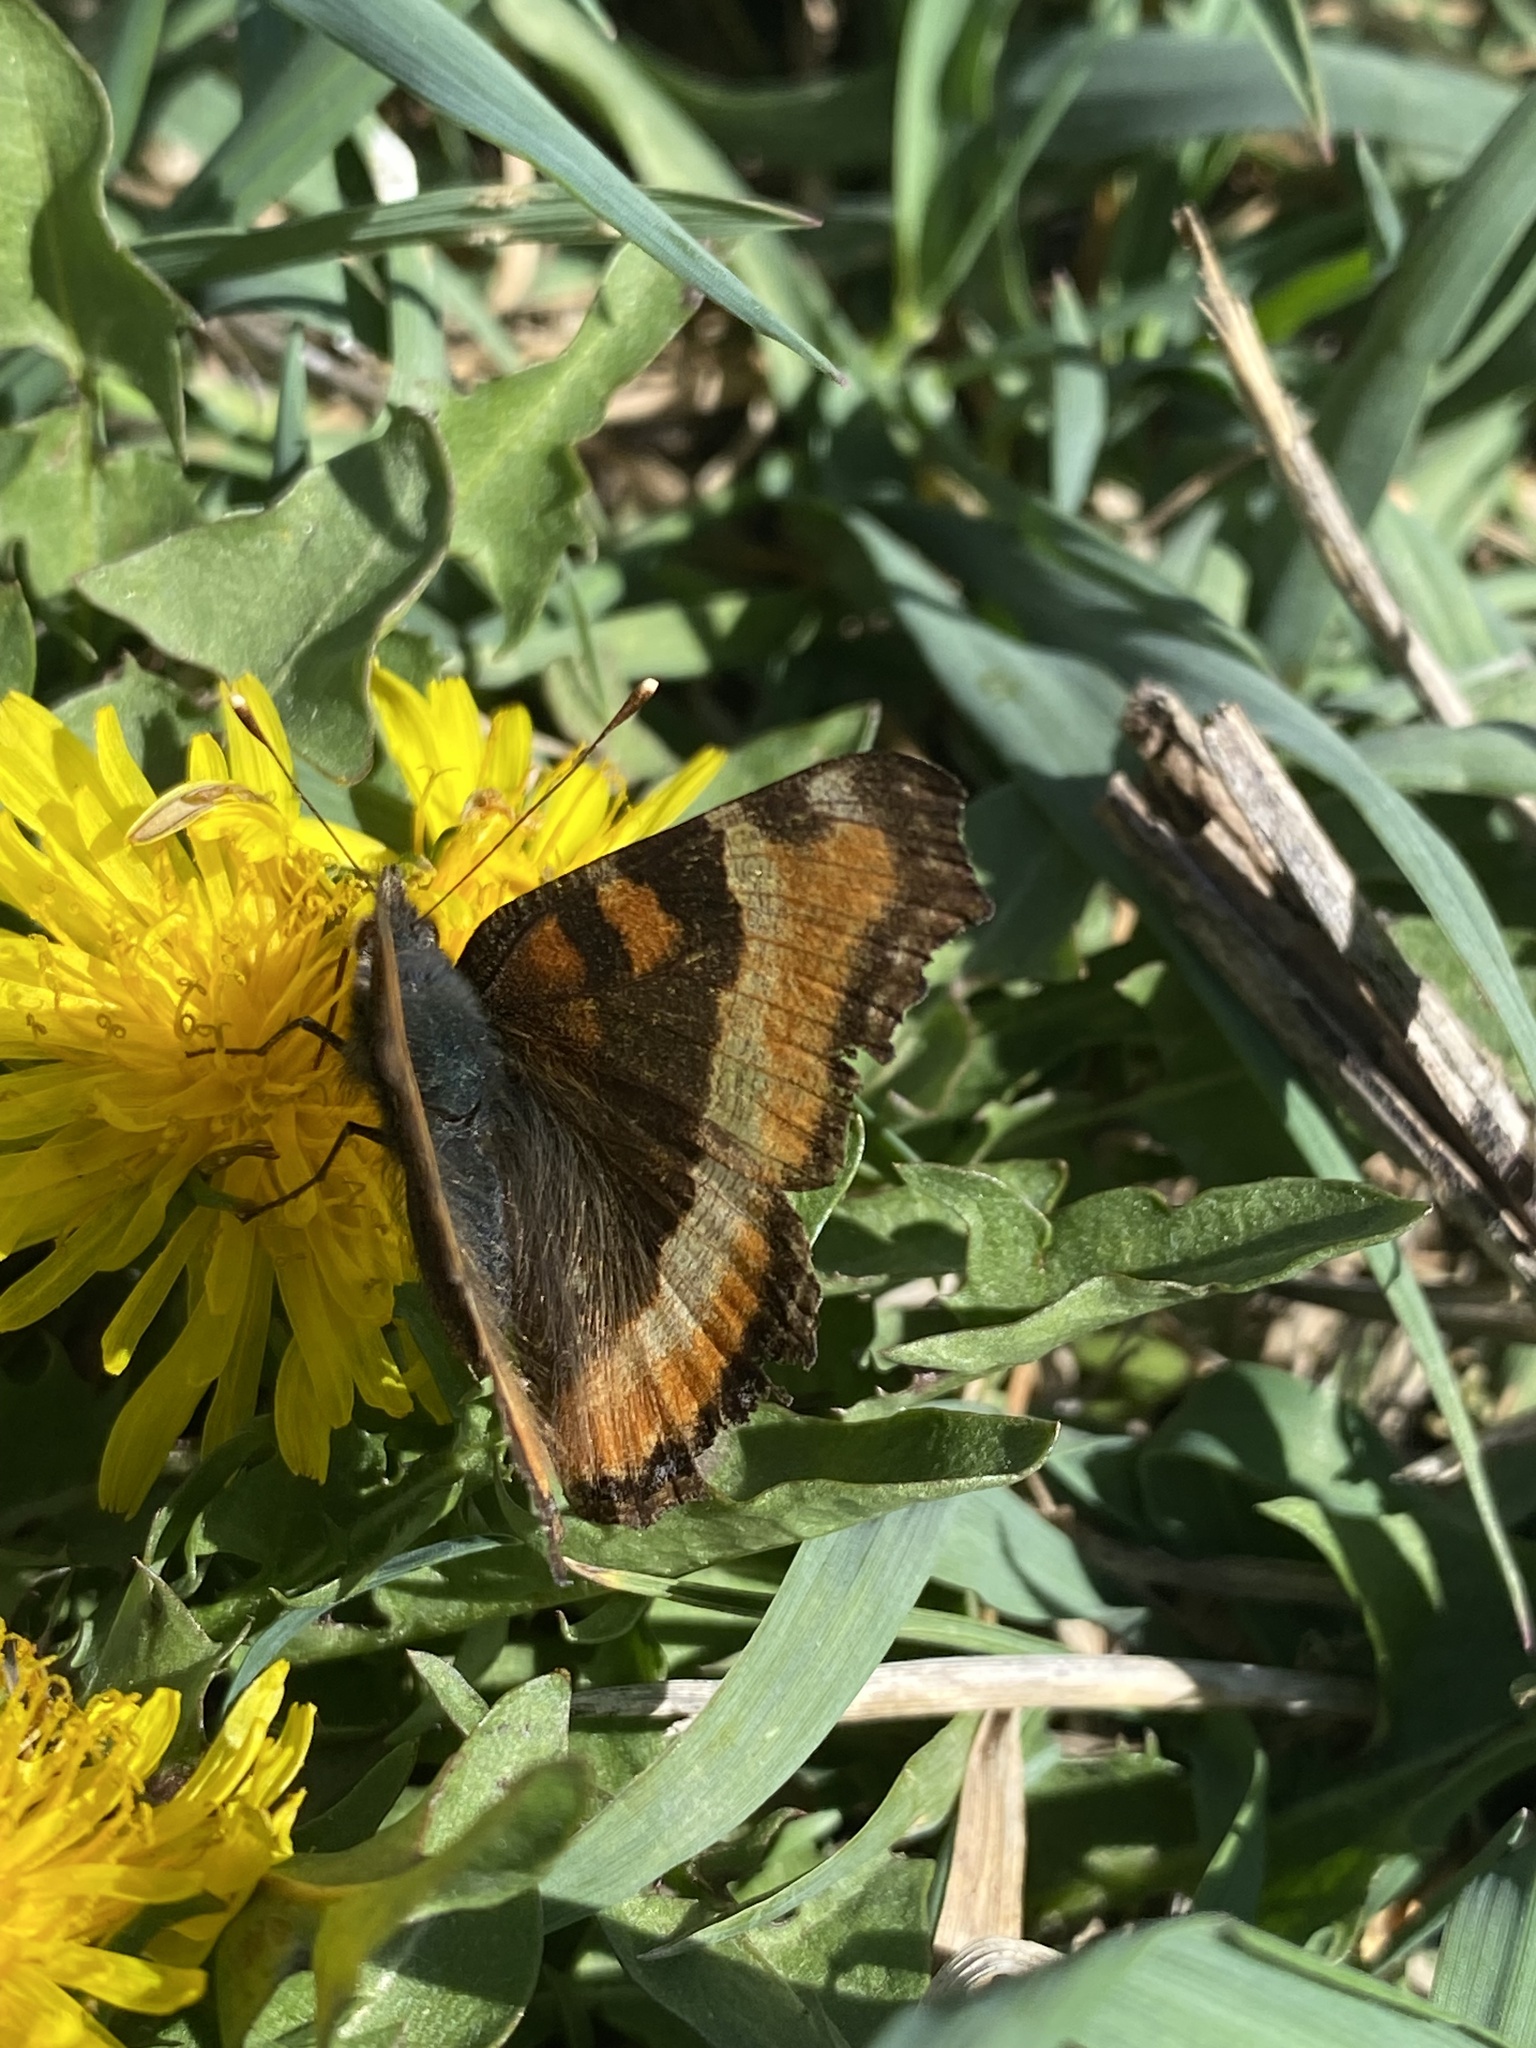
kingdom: Animalia
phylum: Arthropoda
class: Insecta
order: Lepidoptera
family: Nymphalidae
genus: Aglais
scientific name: Aglais milberti
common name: Milbert's tortoiseshell
